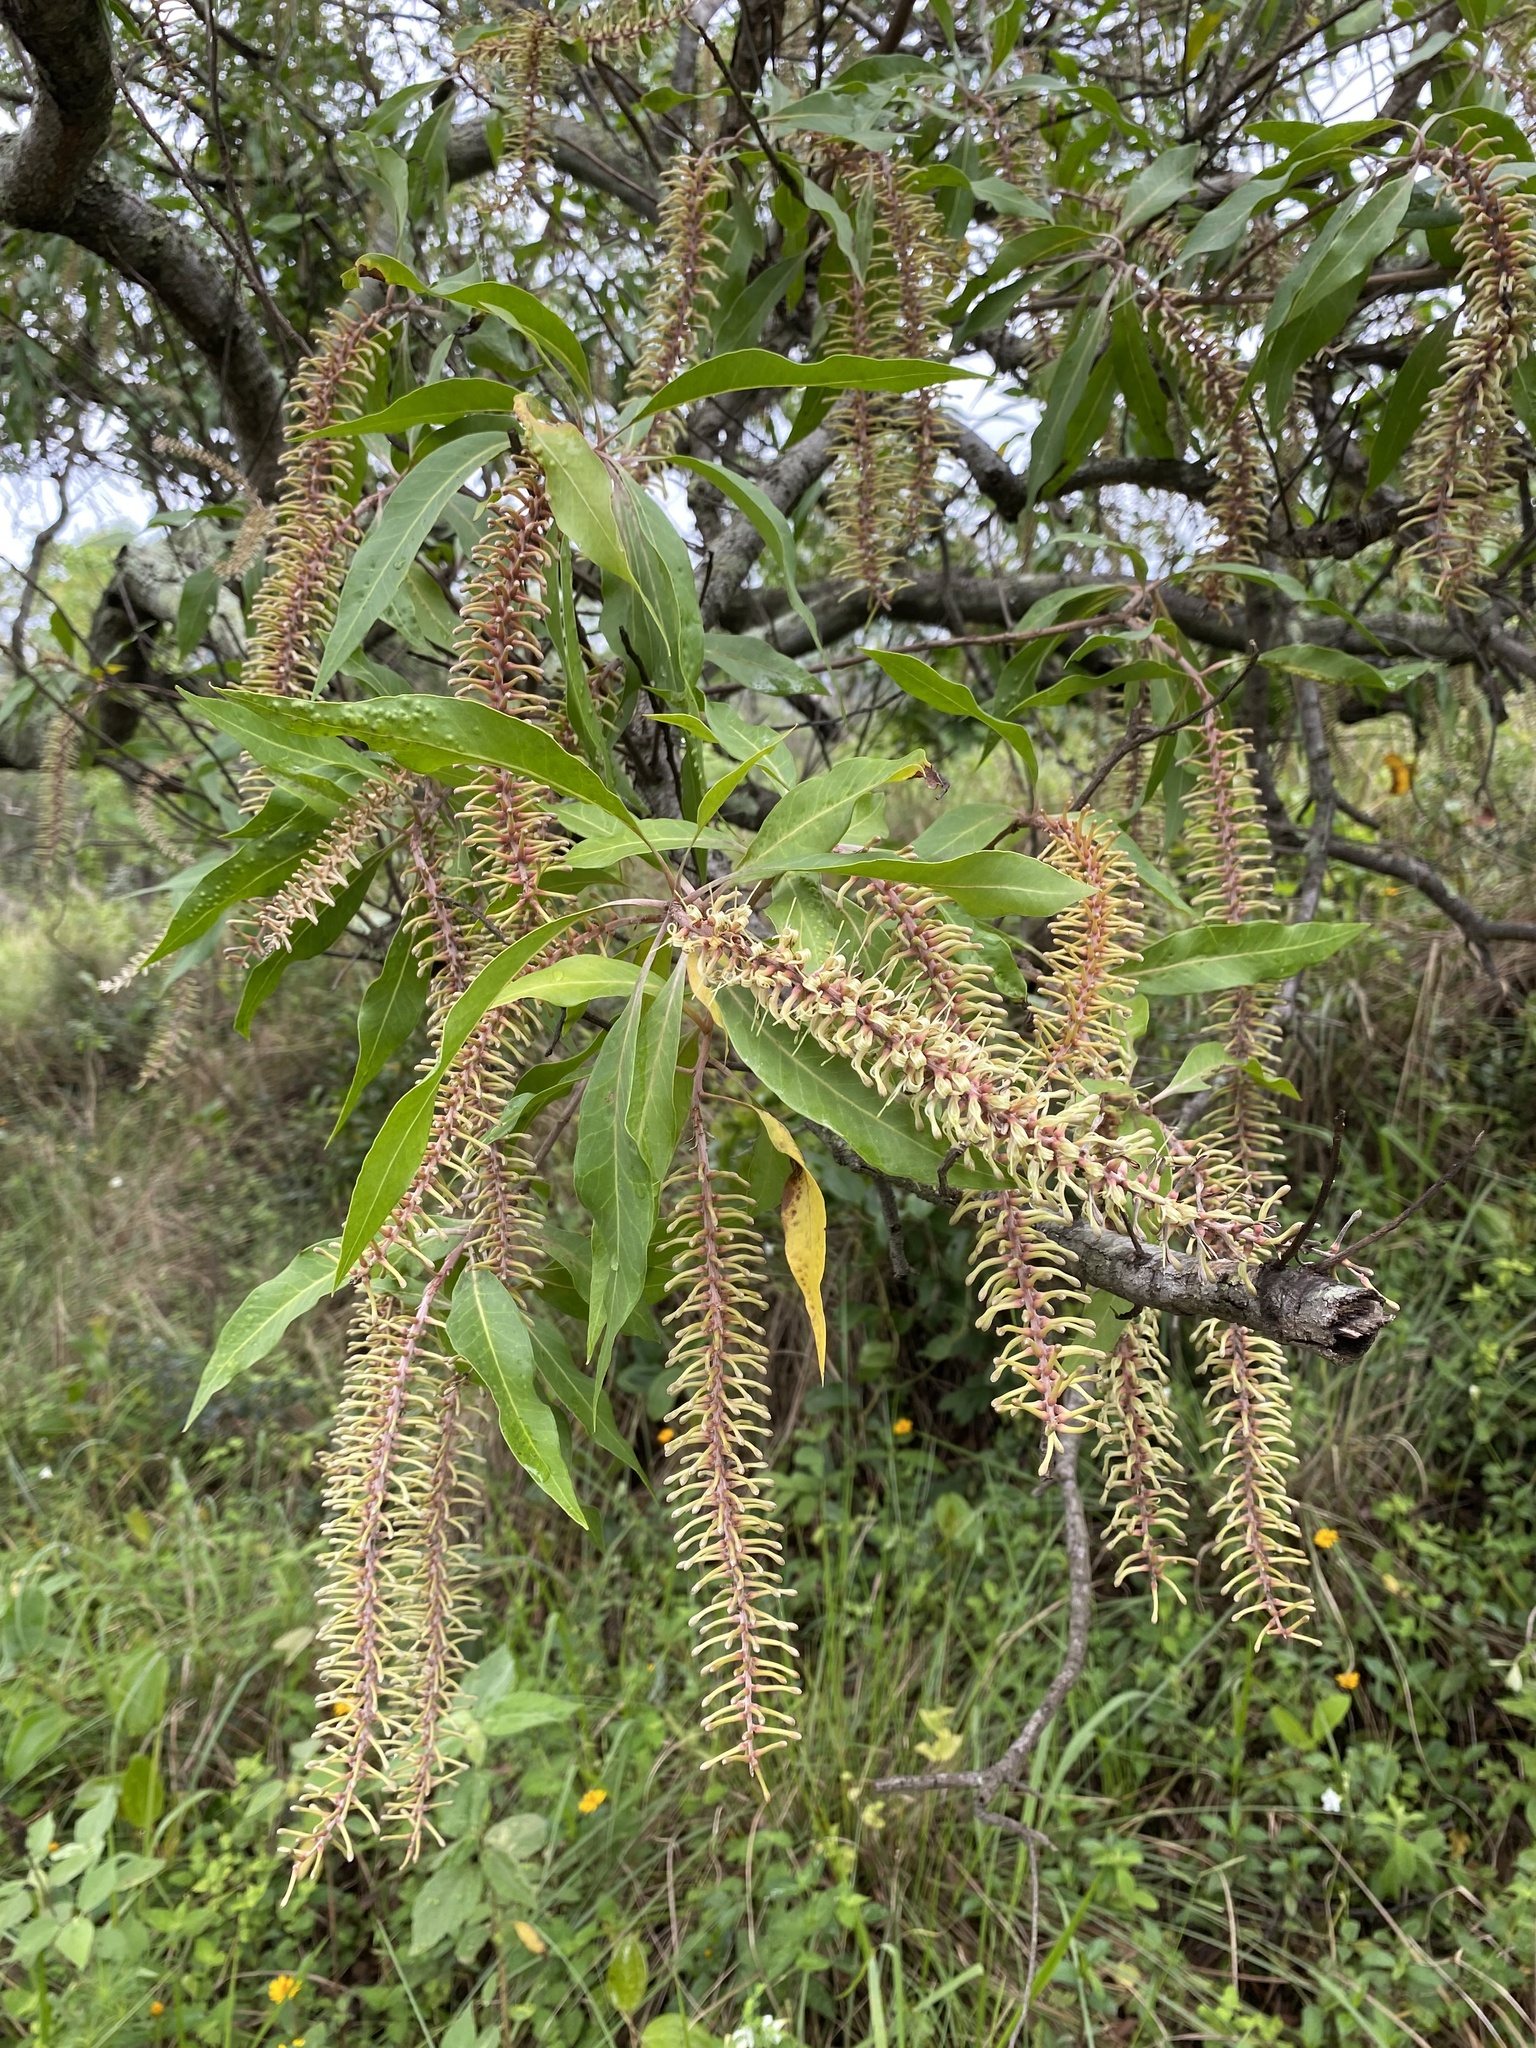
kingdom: Plantae
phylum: Tracheophyta
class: Magnoliopsida
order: Proteales
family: Proteaceae
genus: Faurea
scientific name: Faurea saligna
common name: African bean
